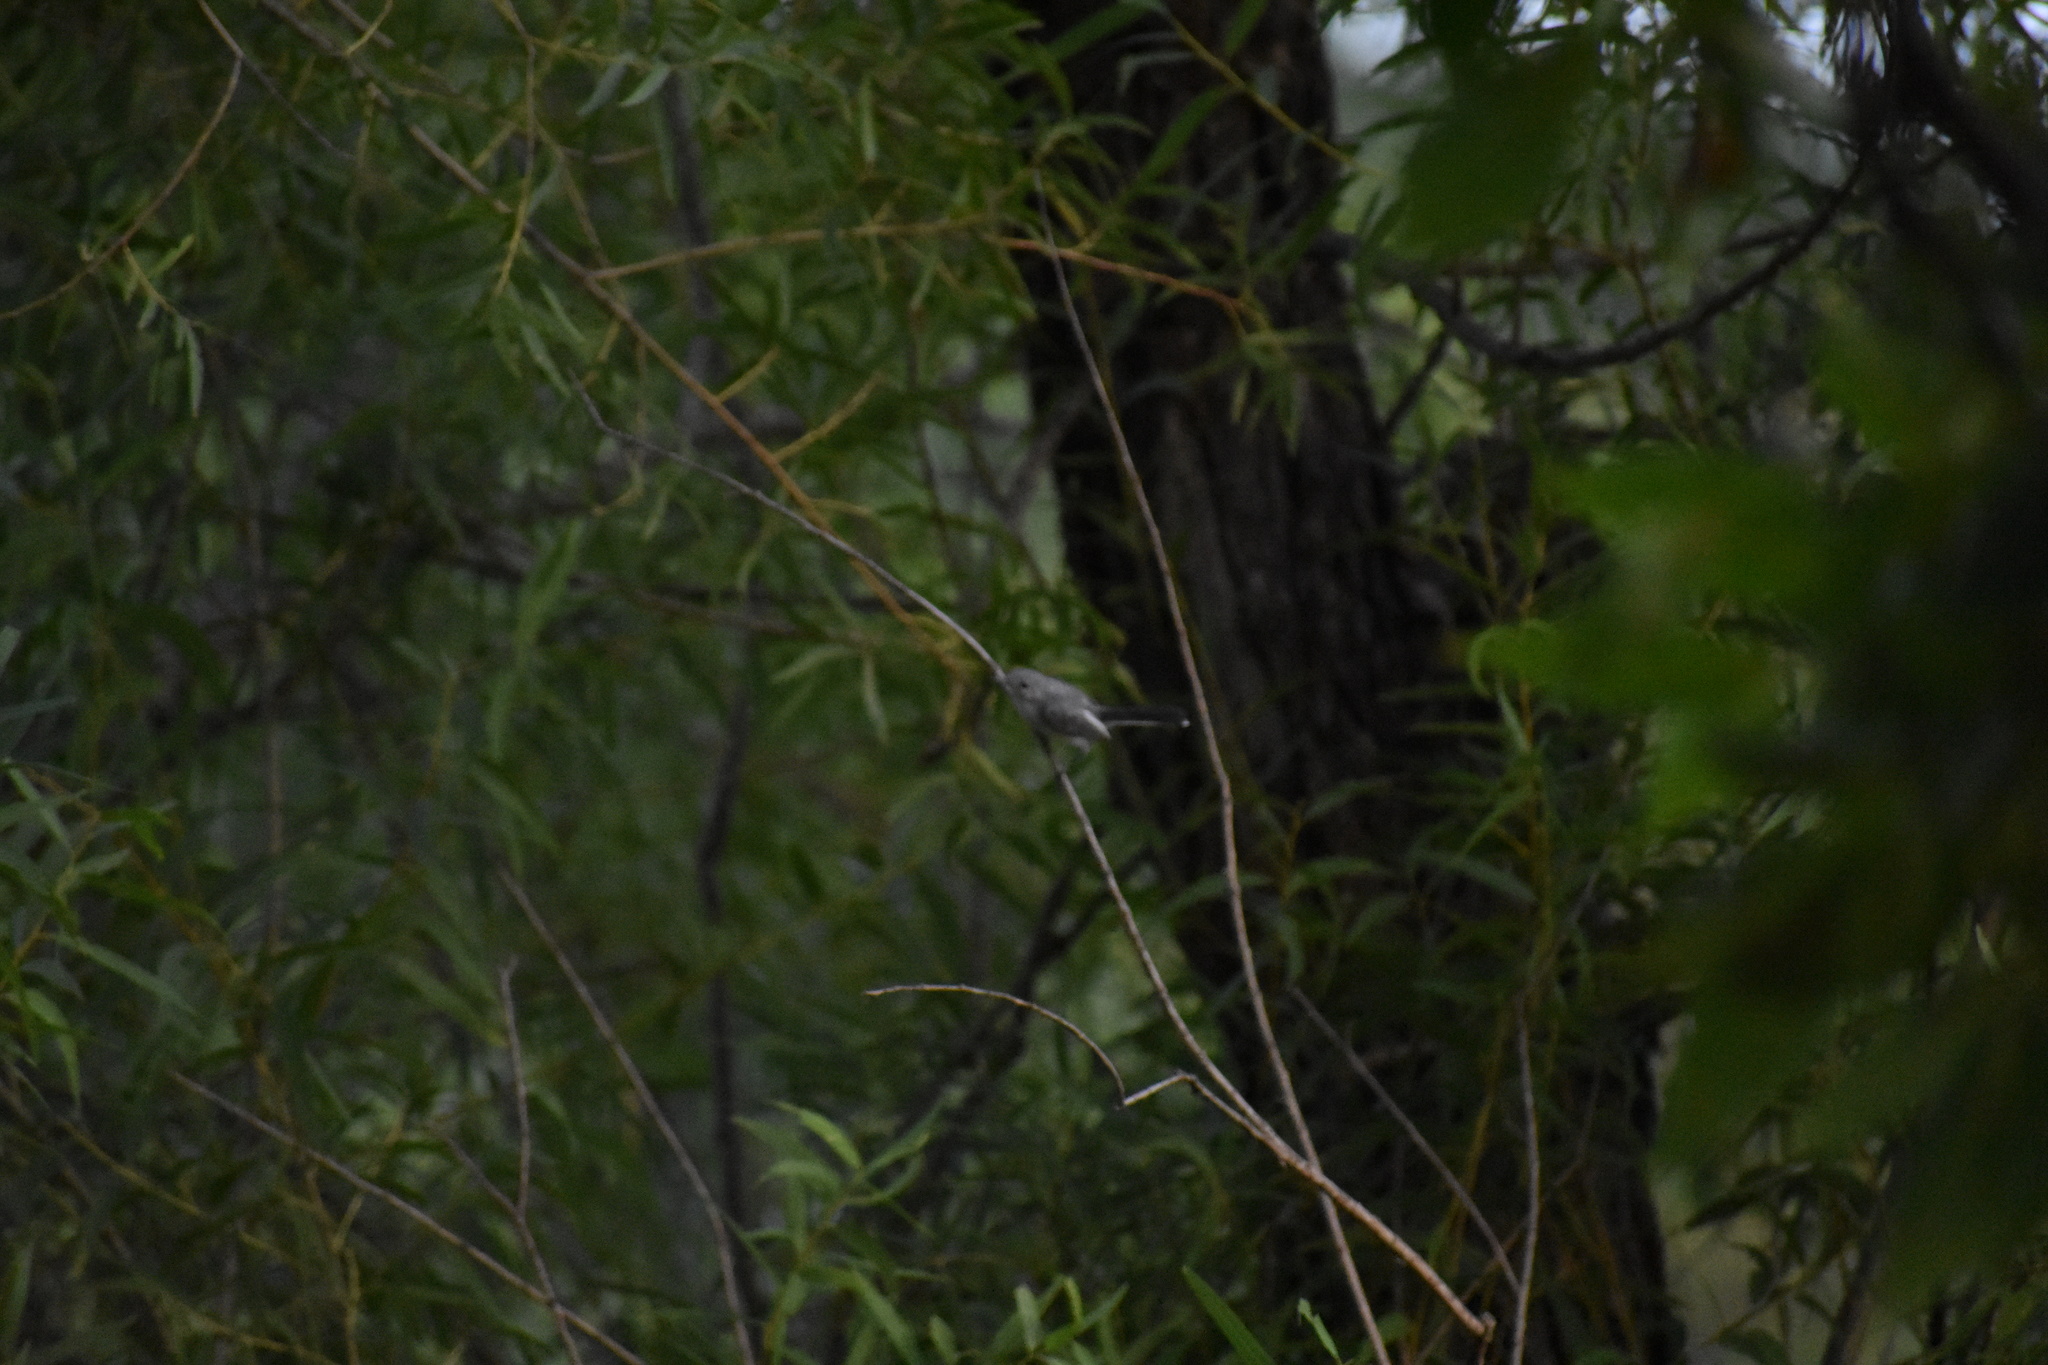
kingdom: Animalia
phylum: Chordata
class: Aves
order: Passeriformes
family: Polioptilidae
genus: Polioptila
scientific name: Polioptila caerulea
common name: Blue-gray gnatcatcher
